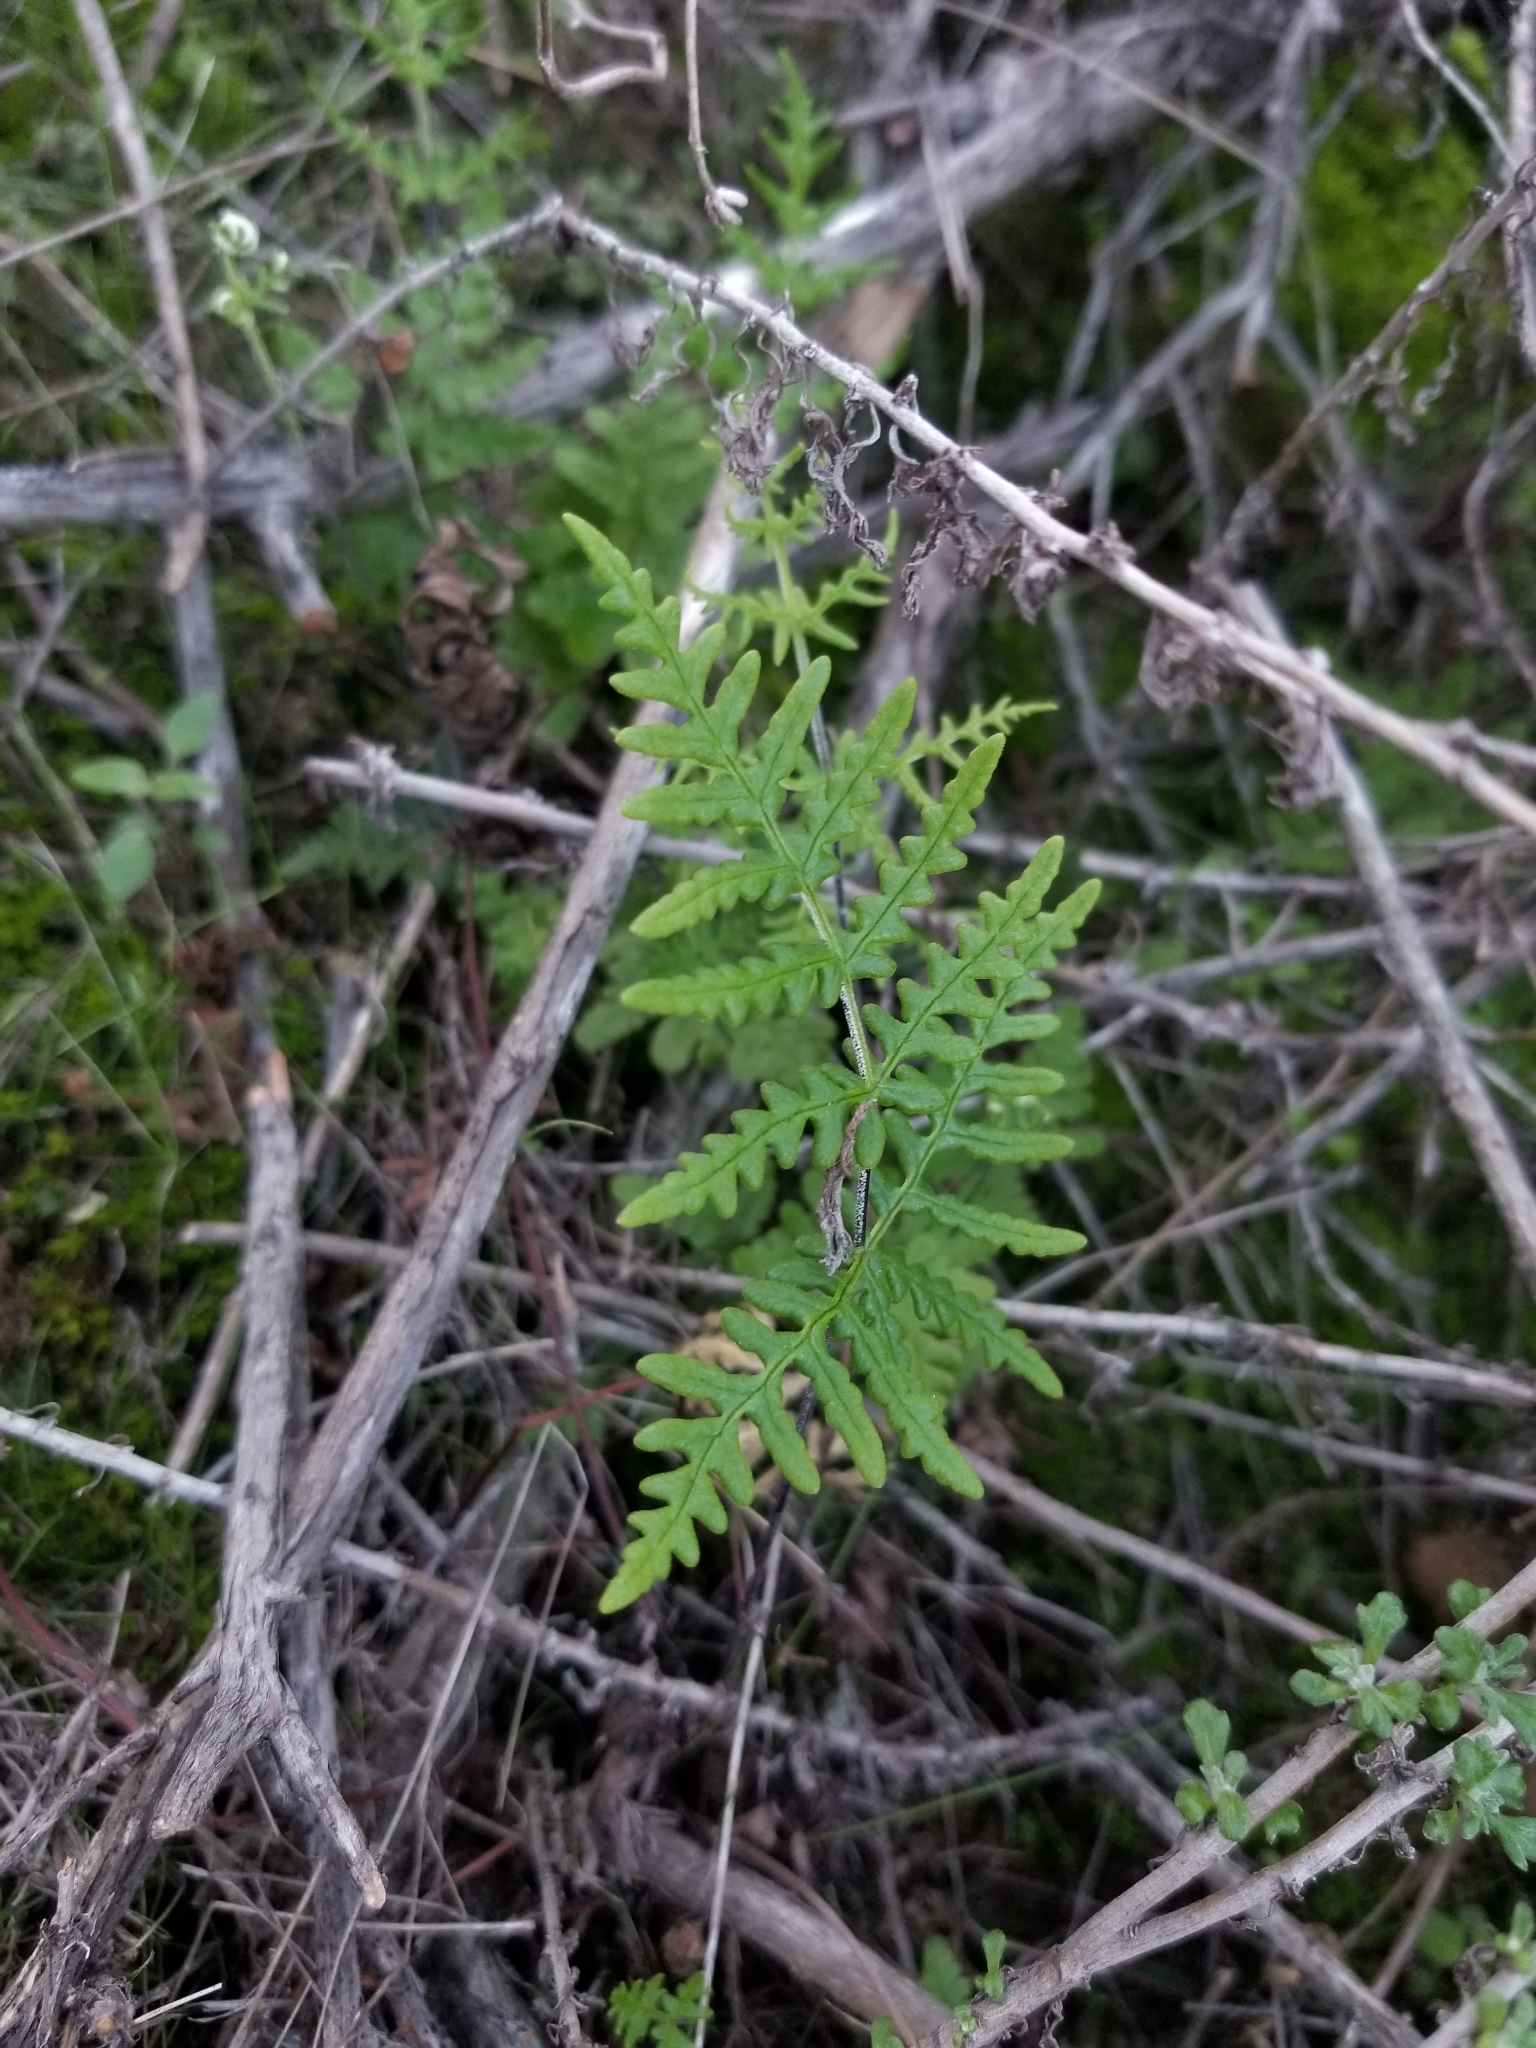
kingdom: Plantae
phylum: Tracheophyta
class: Polypodiopsida
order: Polypodiales
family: Pteridaceae
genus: Pentagramma
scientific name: Pentagramma viscosa
